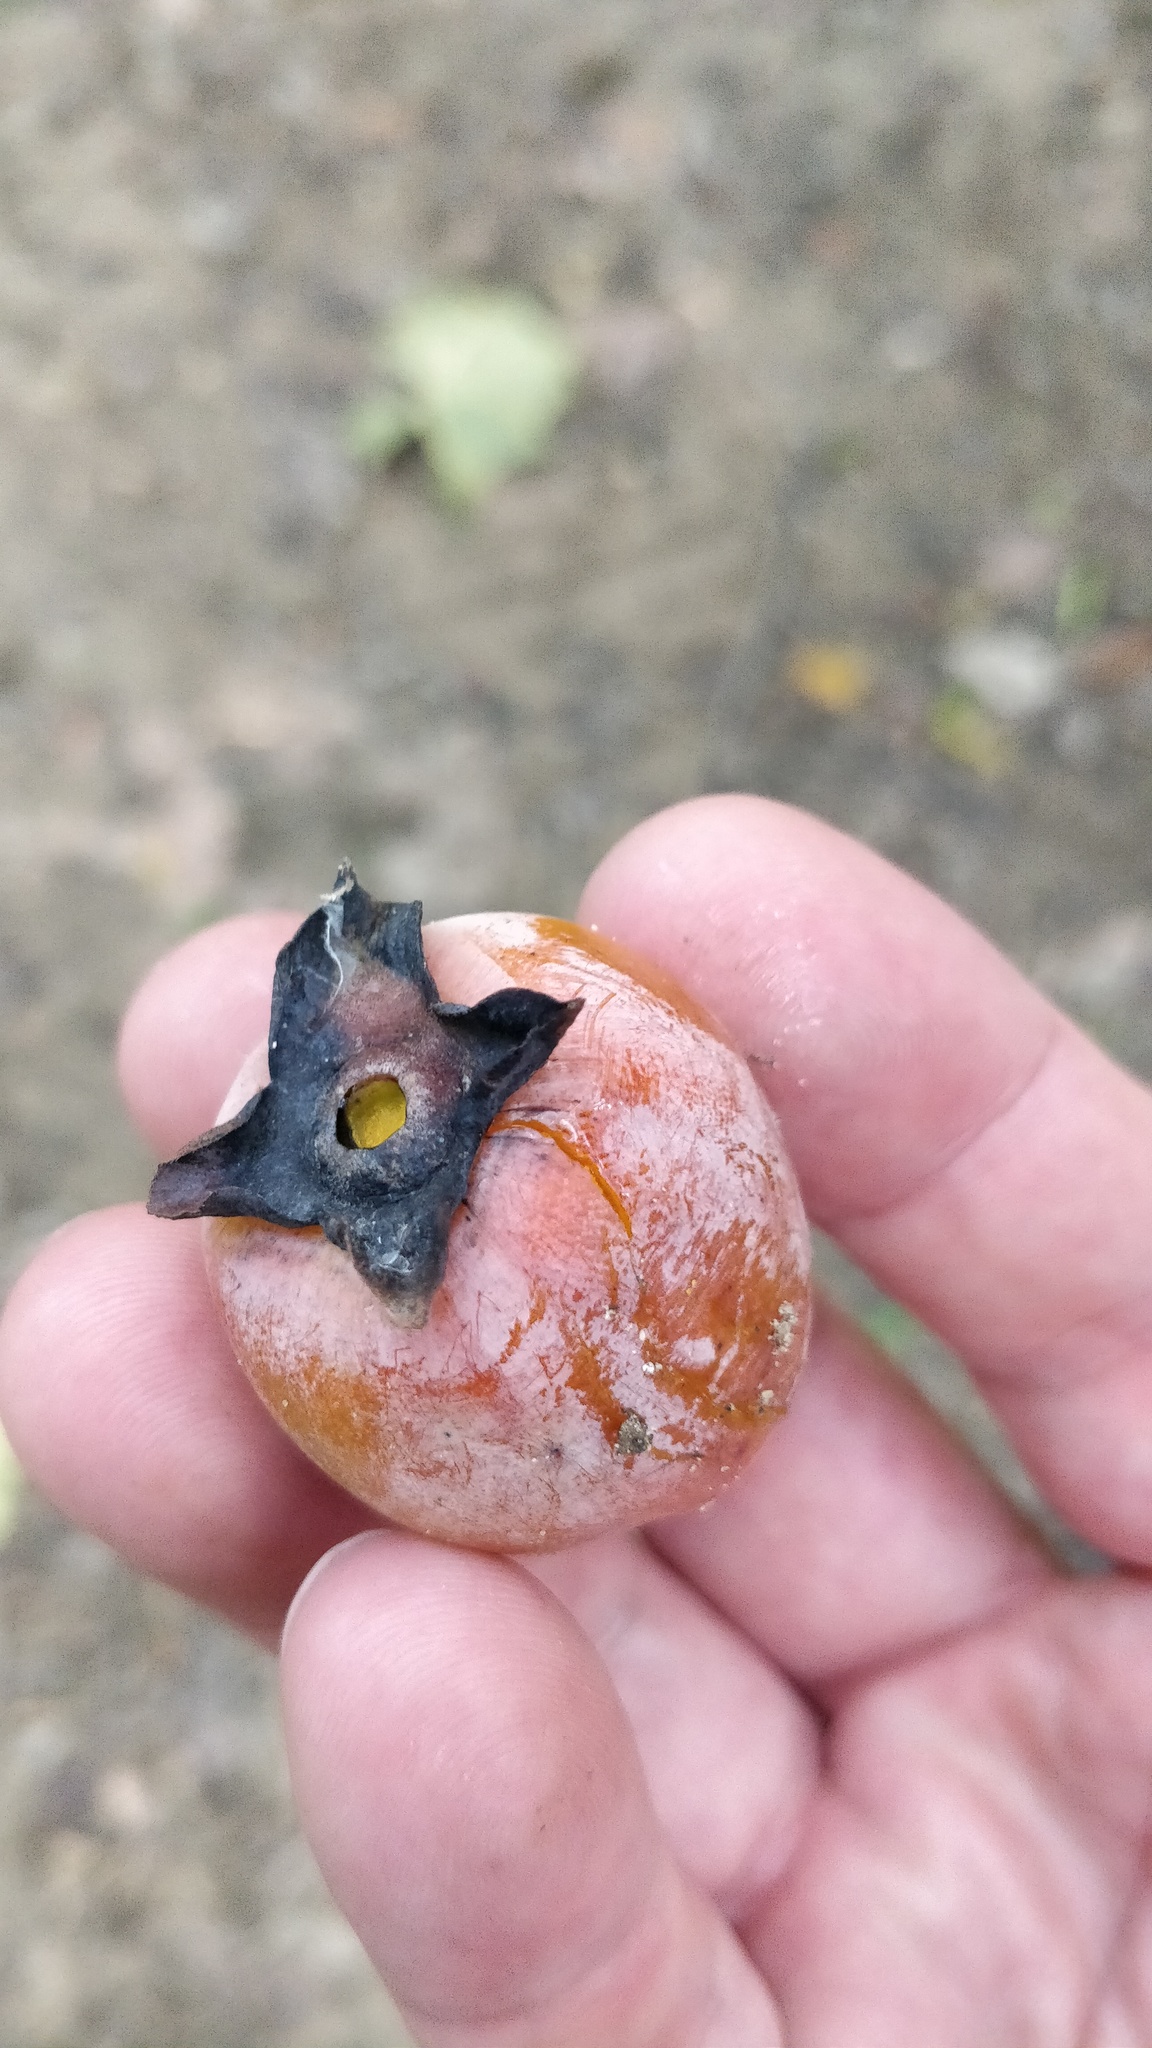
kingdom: Plantae
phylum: Tracheophyta
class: Magnoliopsida
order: Ericales
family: Ebenaceae
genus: Diospyros
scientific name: Diospyros virginiana
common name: Persimmon
